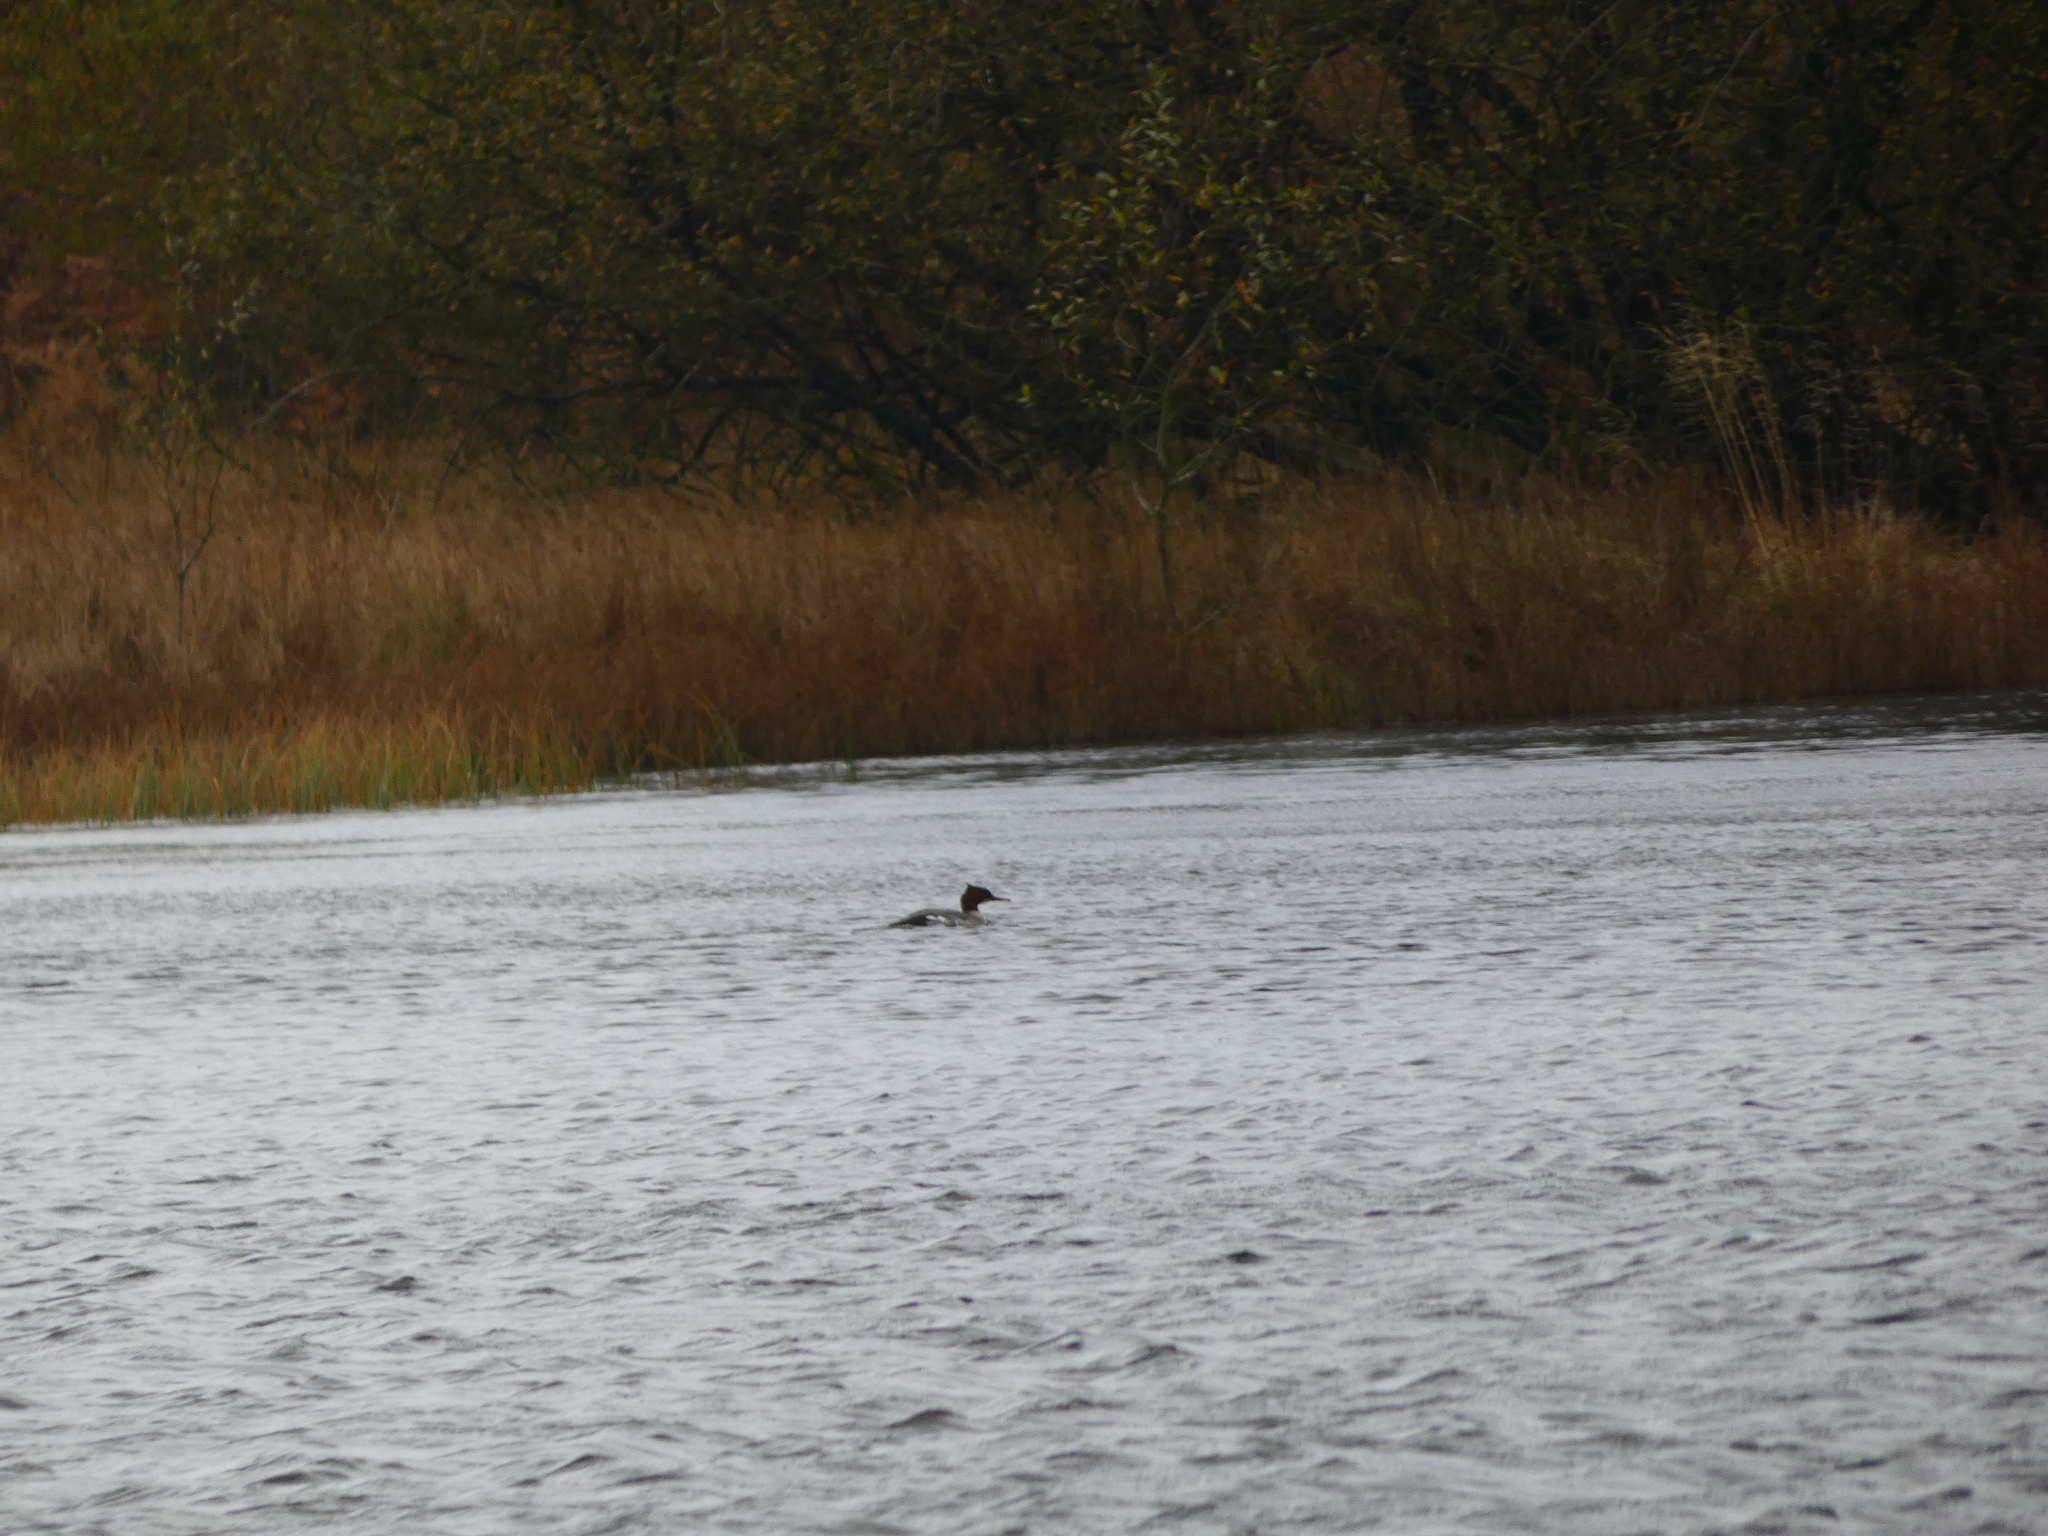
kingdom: Animalia
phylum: Chordata
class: Aves
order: Anseriformes
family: Anatidae
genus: Mergus
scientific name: Mergus merganser
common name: Common merganser
